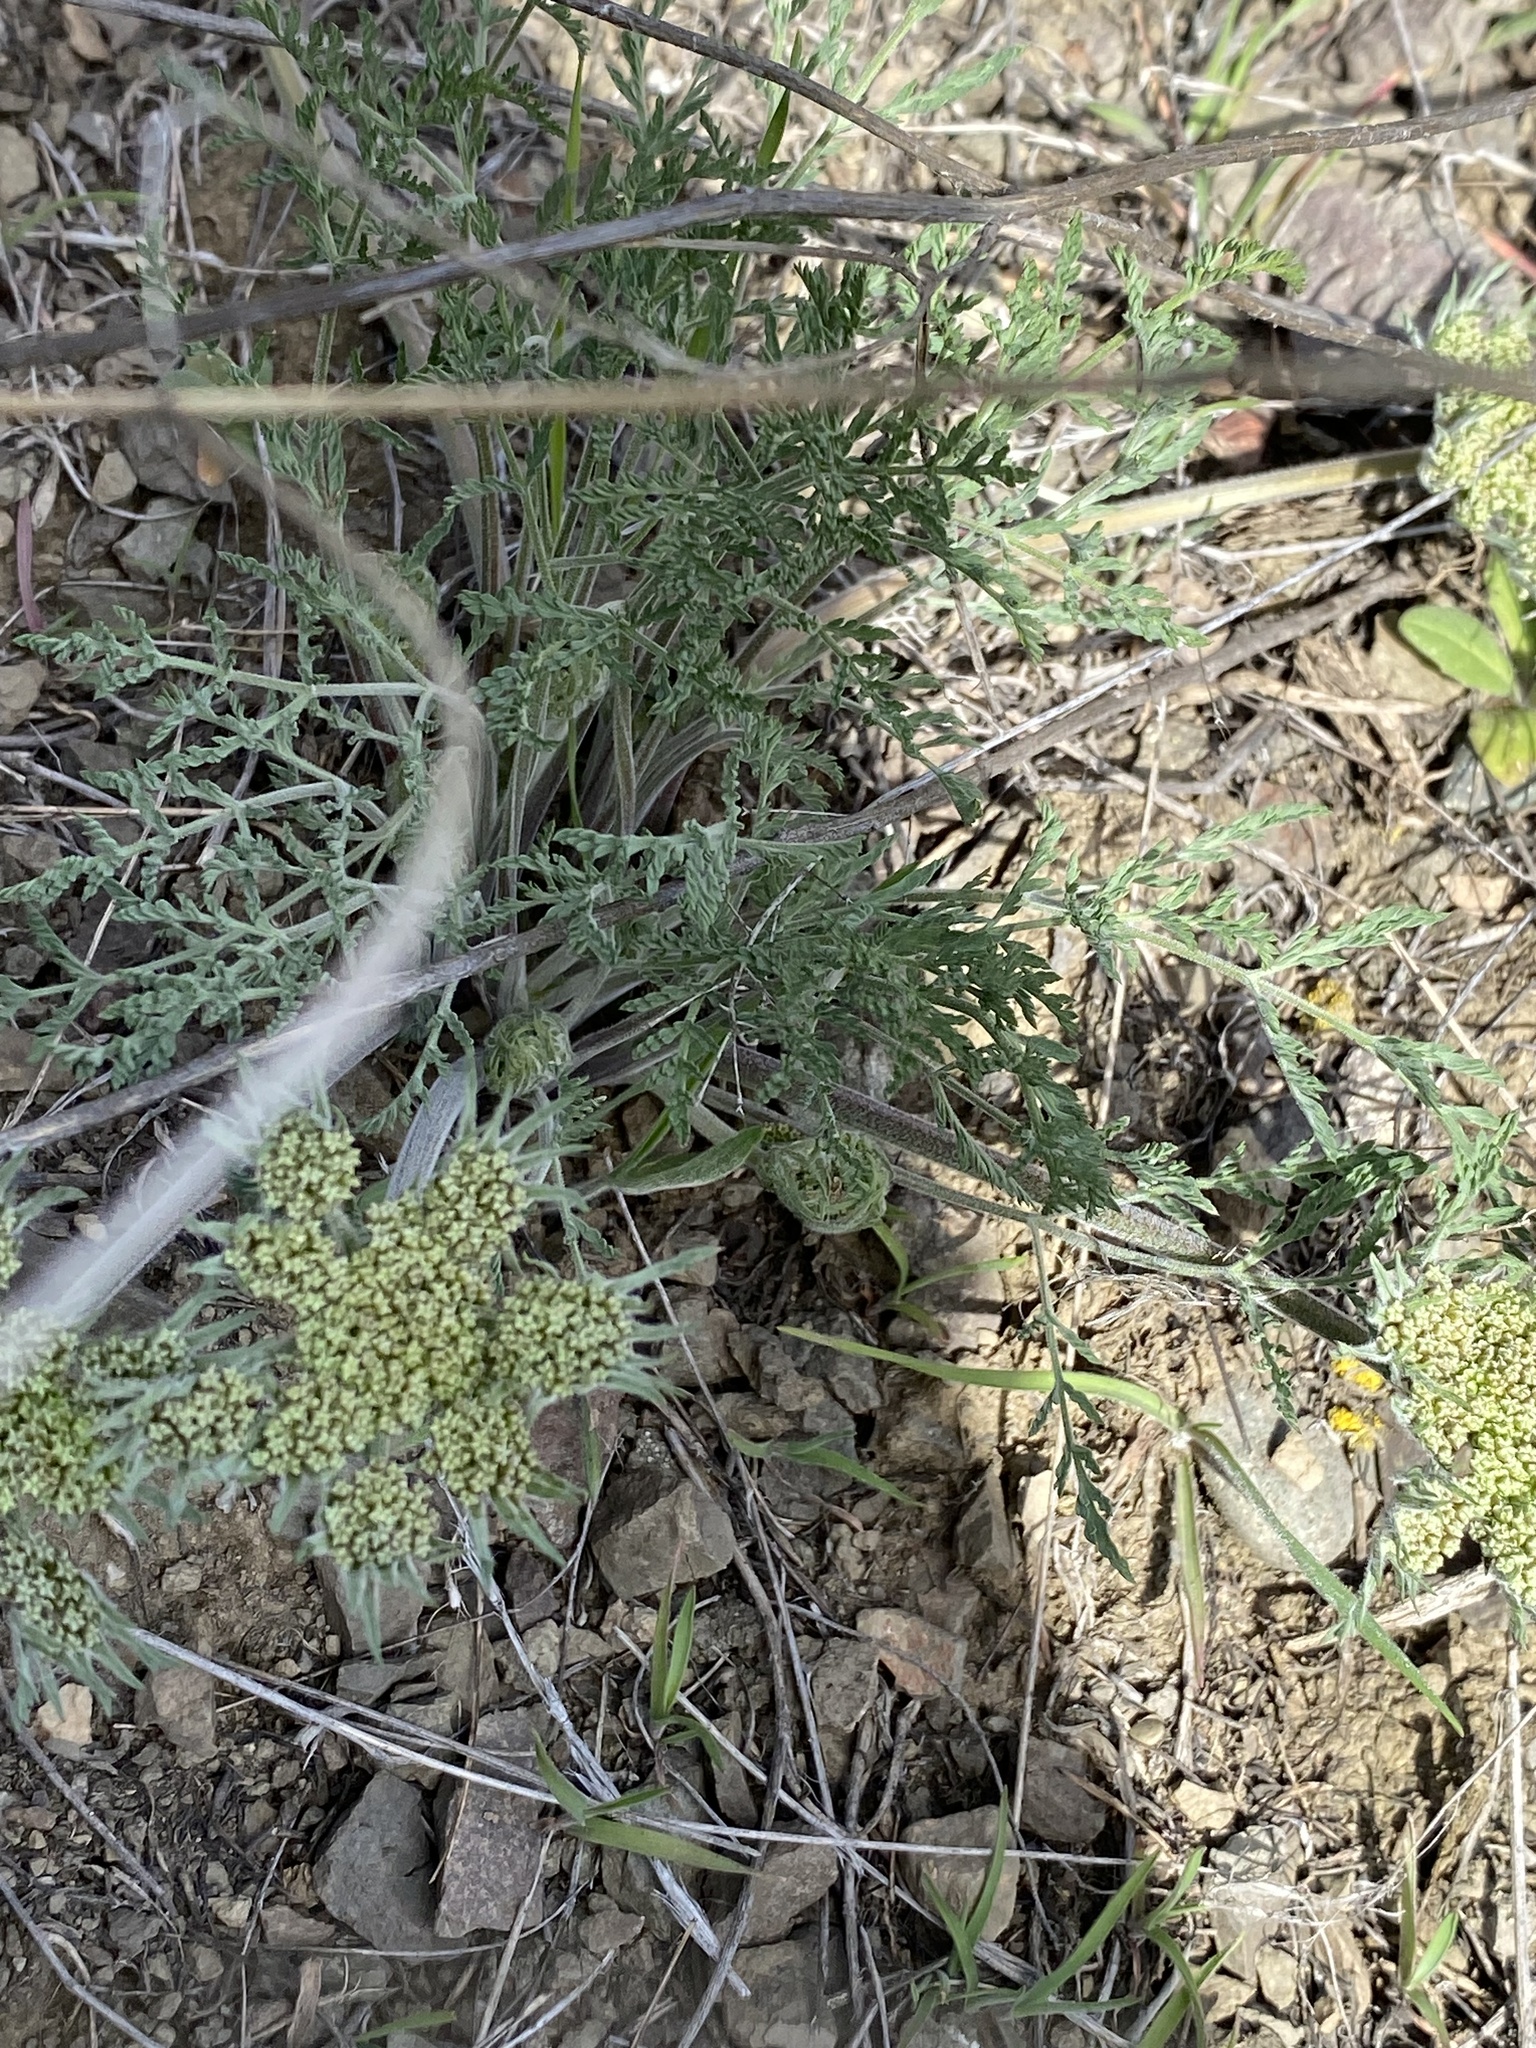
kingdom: Plantae
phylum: Tracheophyta
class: Magnoliopsida
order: Apiales
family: Apiaceae
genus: Lomatium
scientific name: Lomatium macrocarpum
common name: Big-seed biscuitroot
